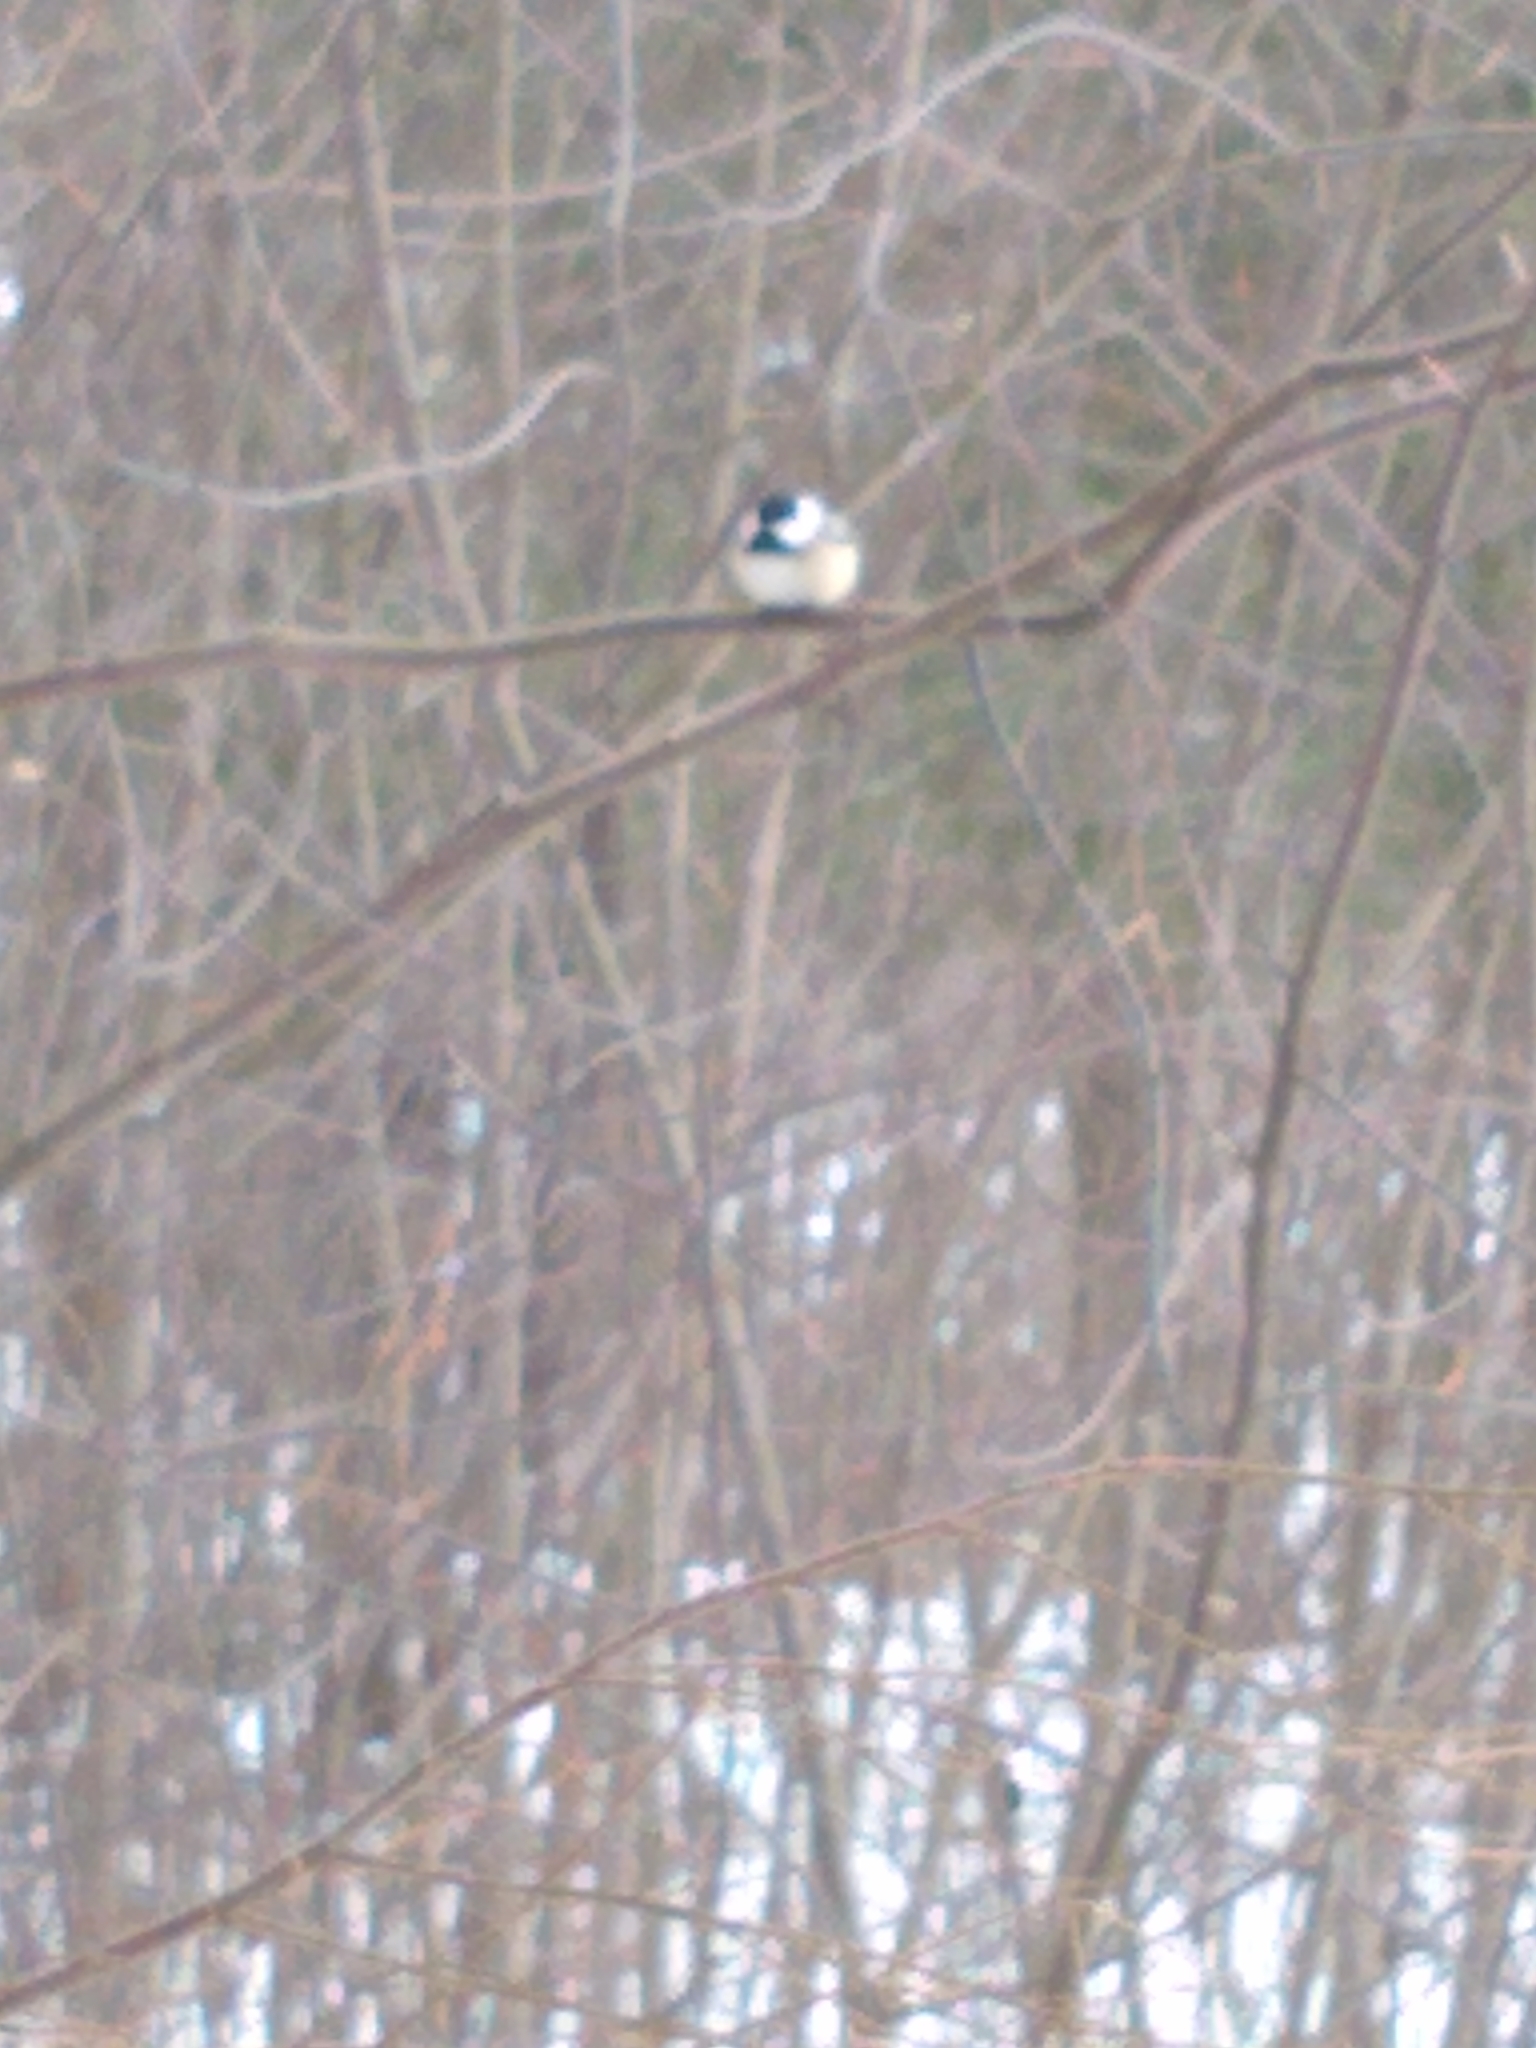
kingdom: Animalia
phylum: Chordata
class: Aves
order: Passeriformes
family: Paridae
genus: Poecile
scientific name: Poecile atricapillus
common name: Black-capped chickadee
